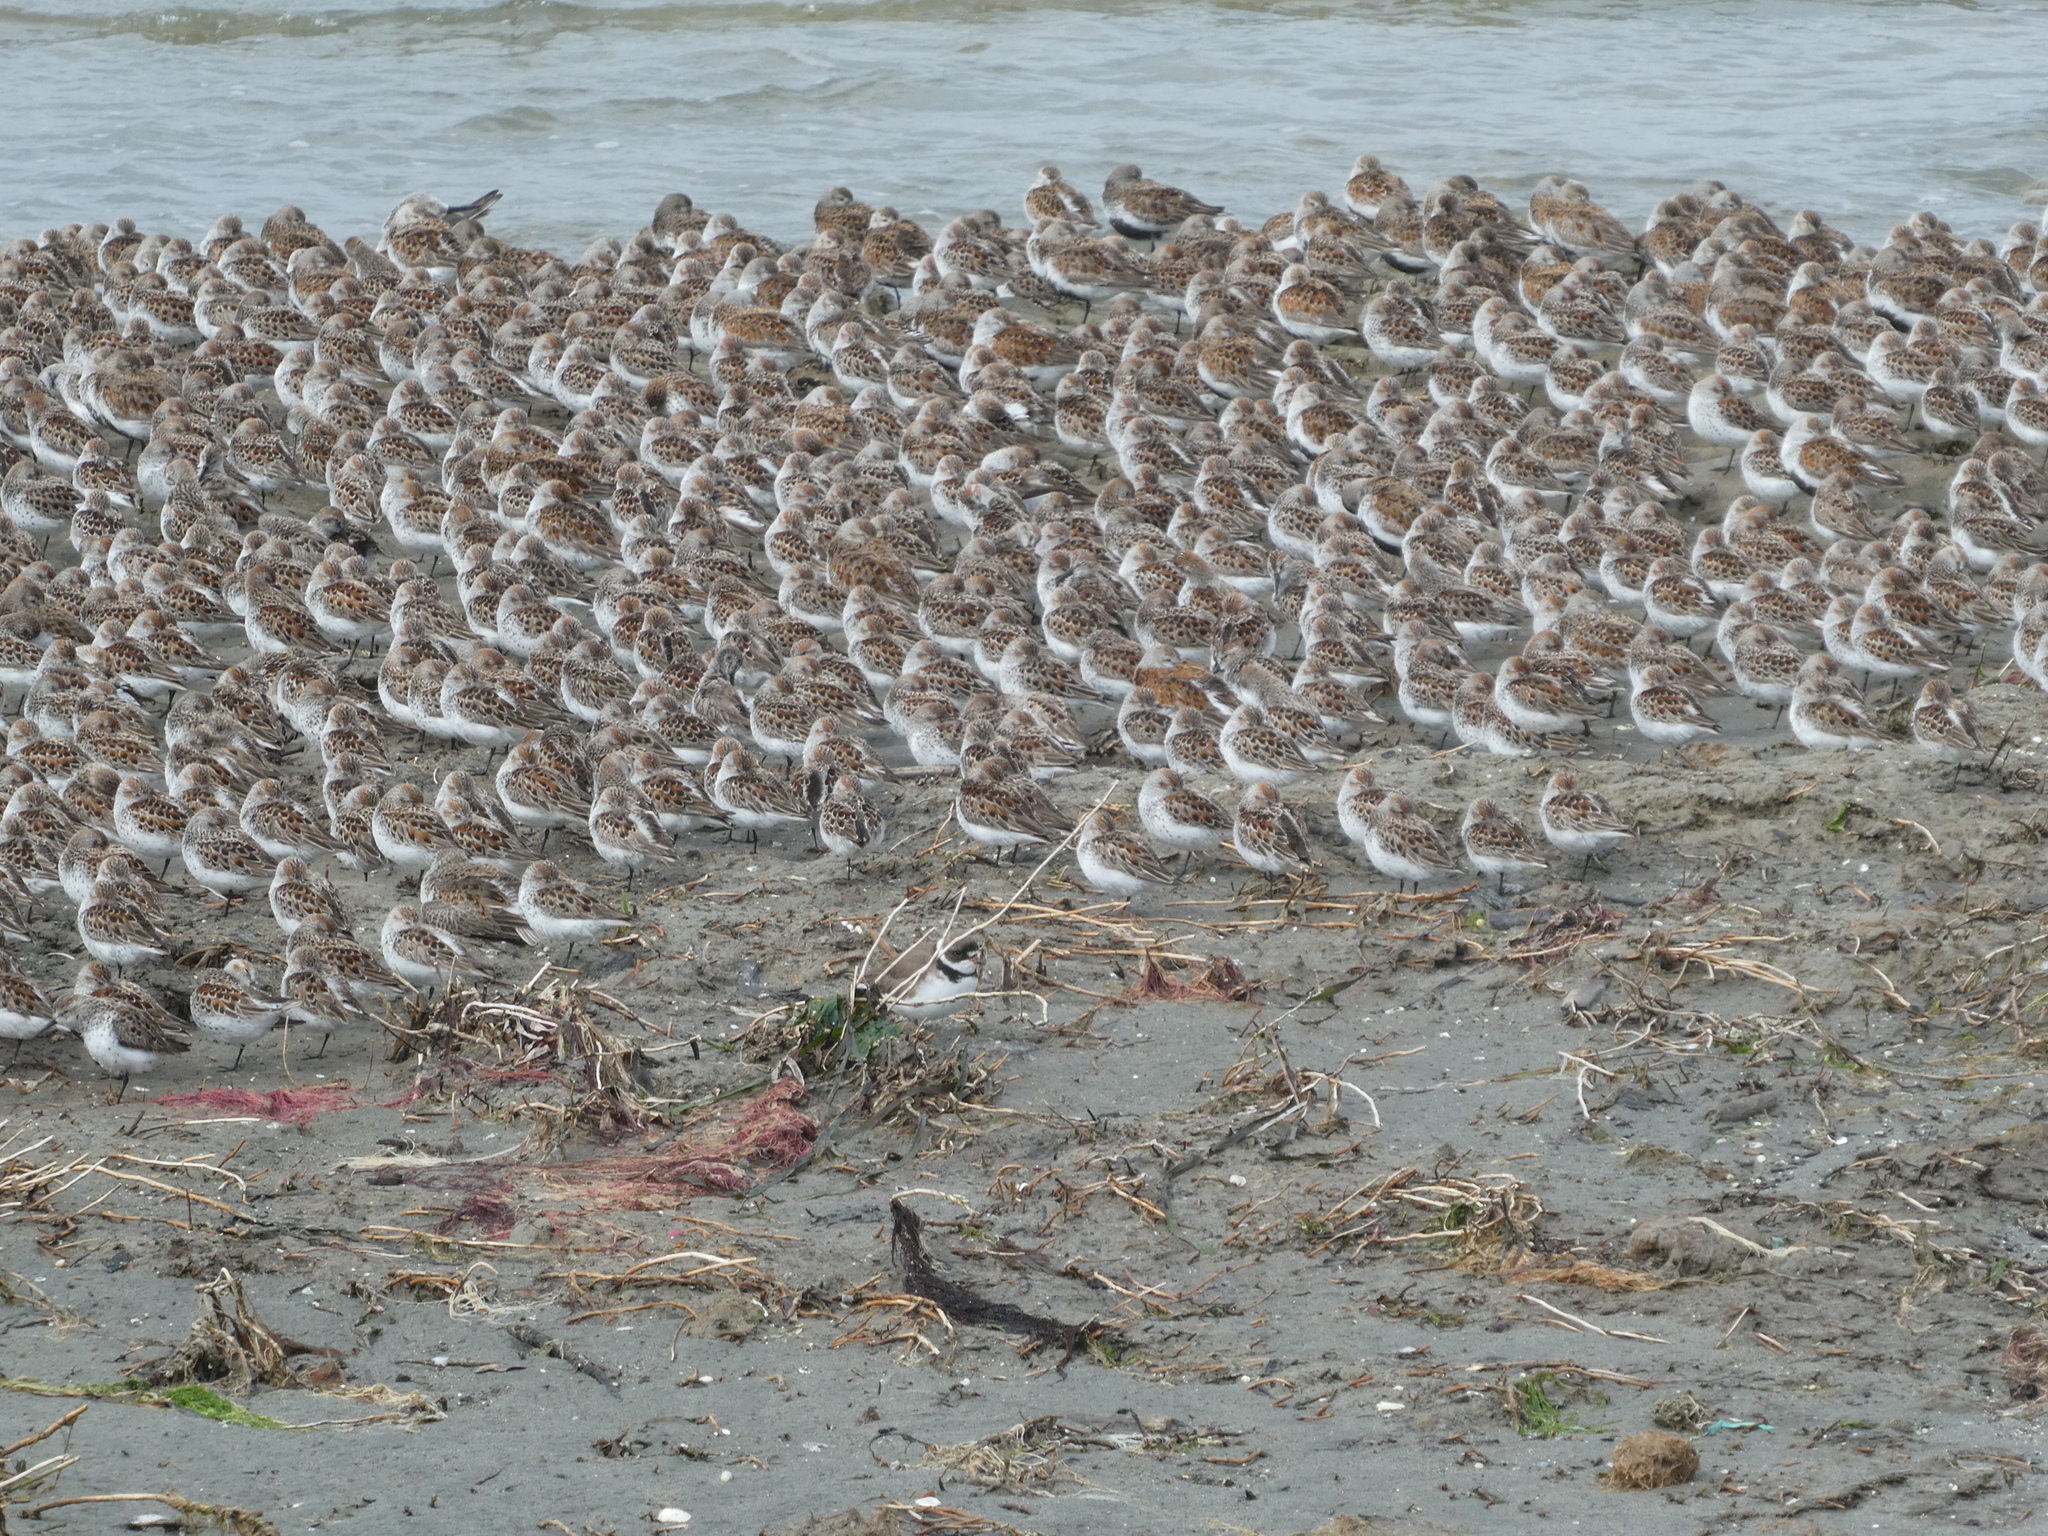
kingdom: Animalia
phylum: Chordata
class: Aves
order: Charadriiformes
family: Charadriidae
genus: Charadrius
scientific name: Charadrius semipalmatus
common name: Semipalmated plover
